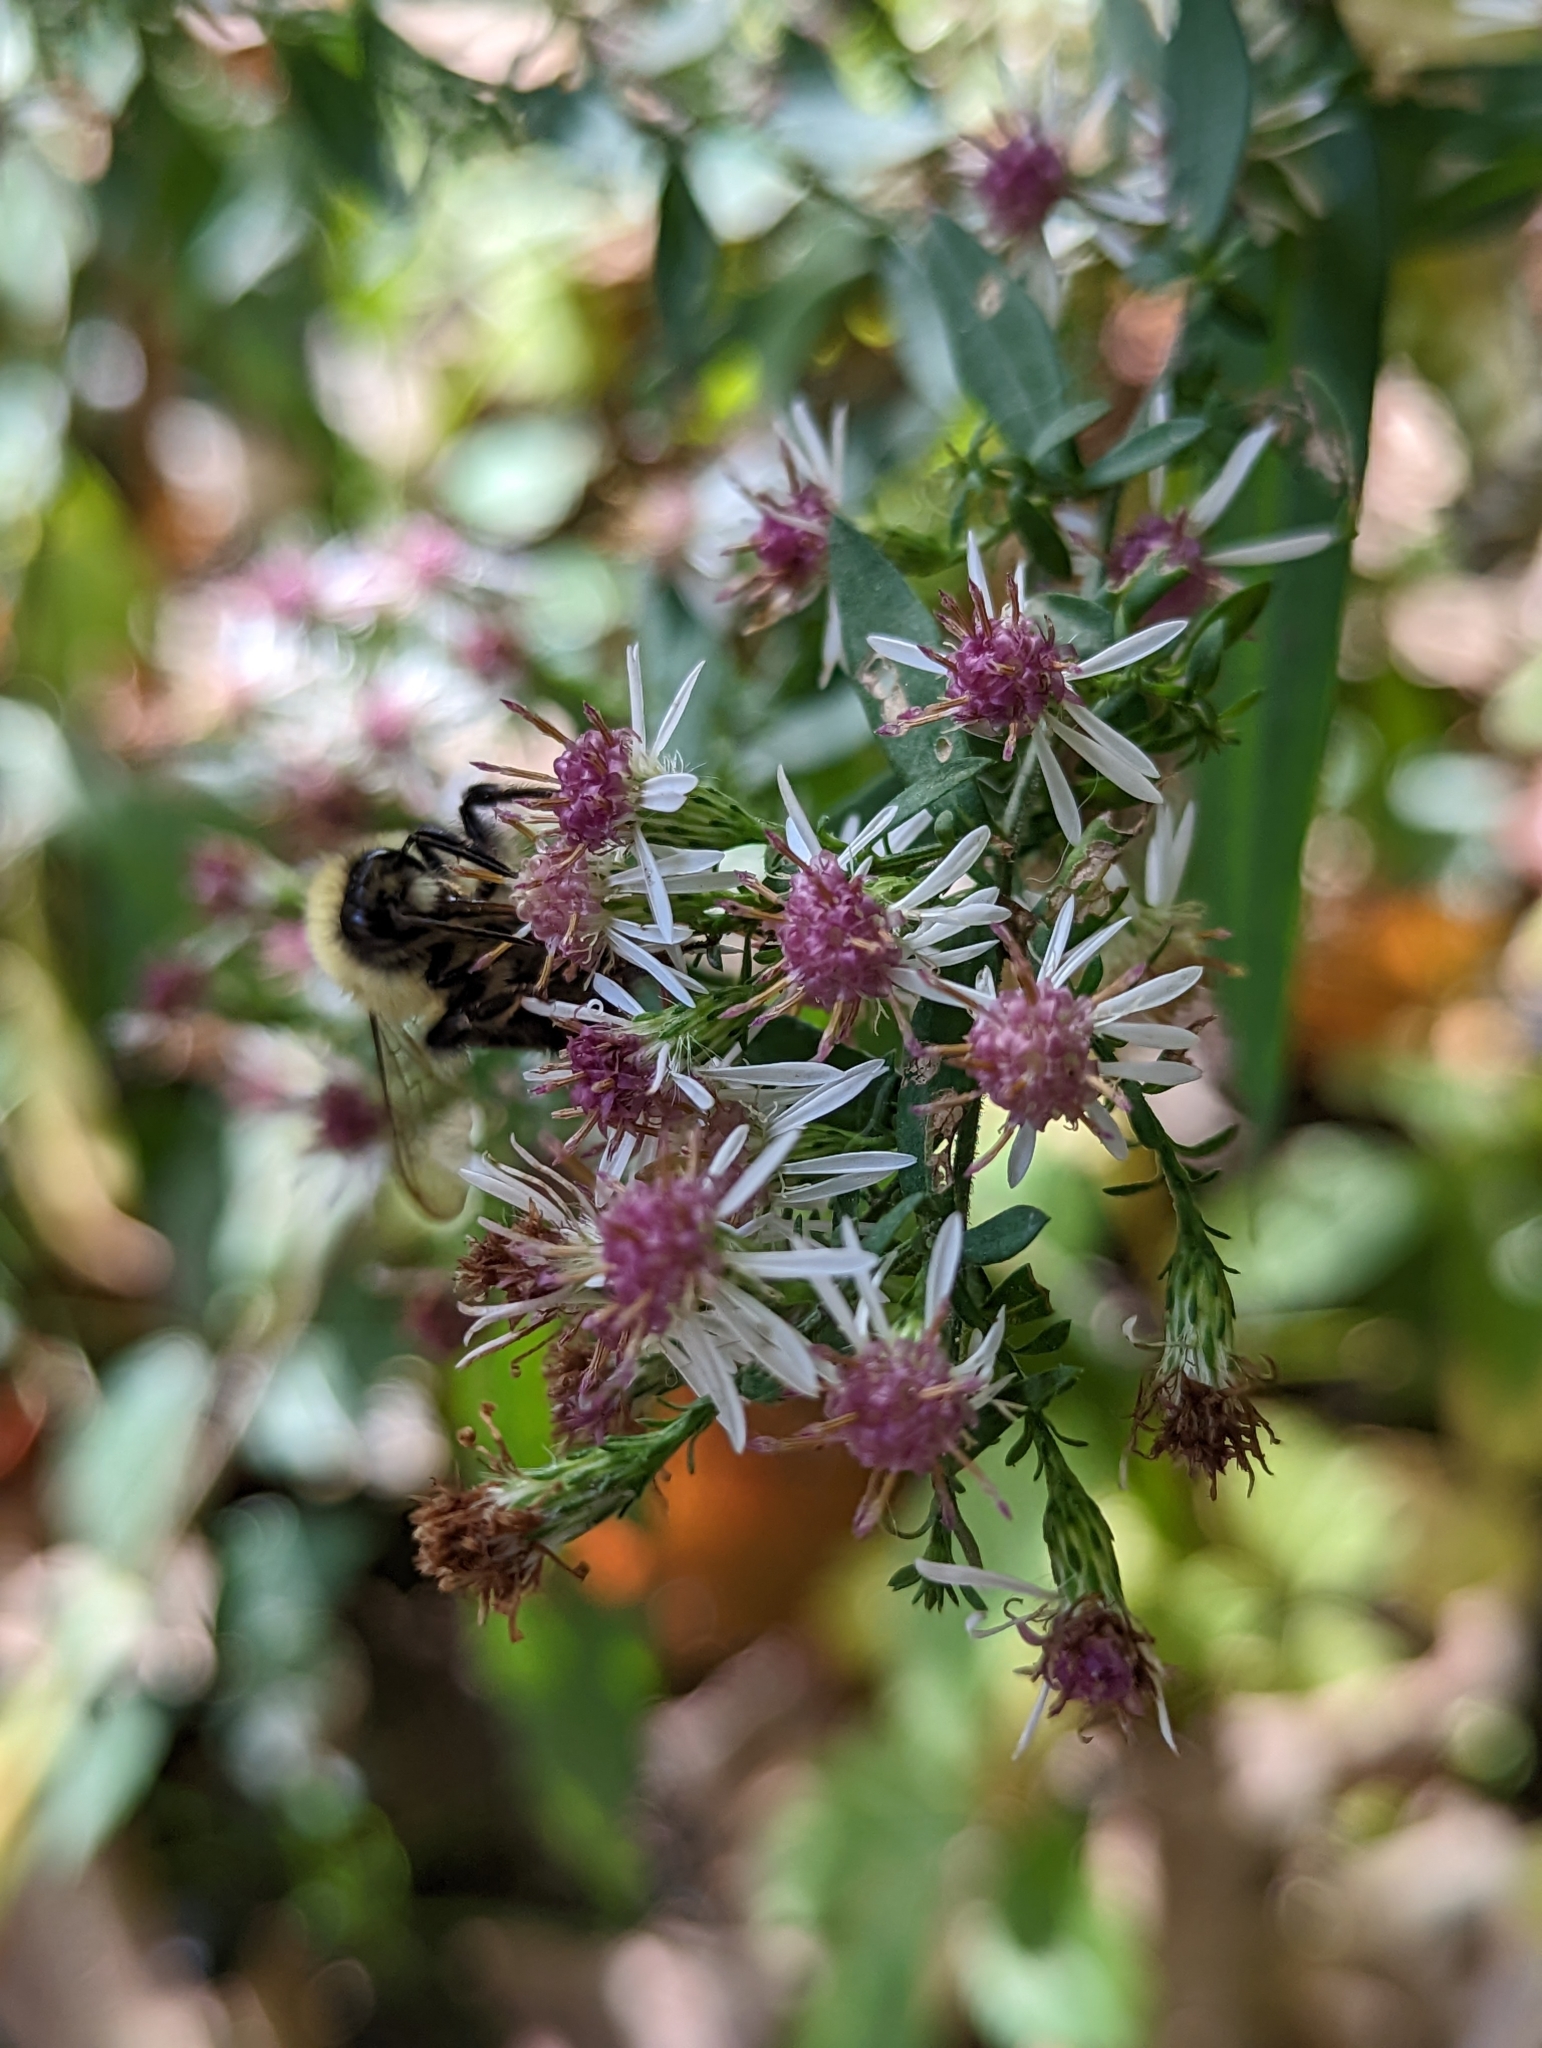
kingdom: Animalia
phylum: Arthropoda
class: Insecta
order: Hymenoptera
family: Apidae
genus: Bombus
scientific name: Bombus impatiens
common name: Common eastern bumble bee
